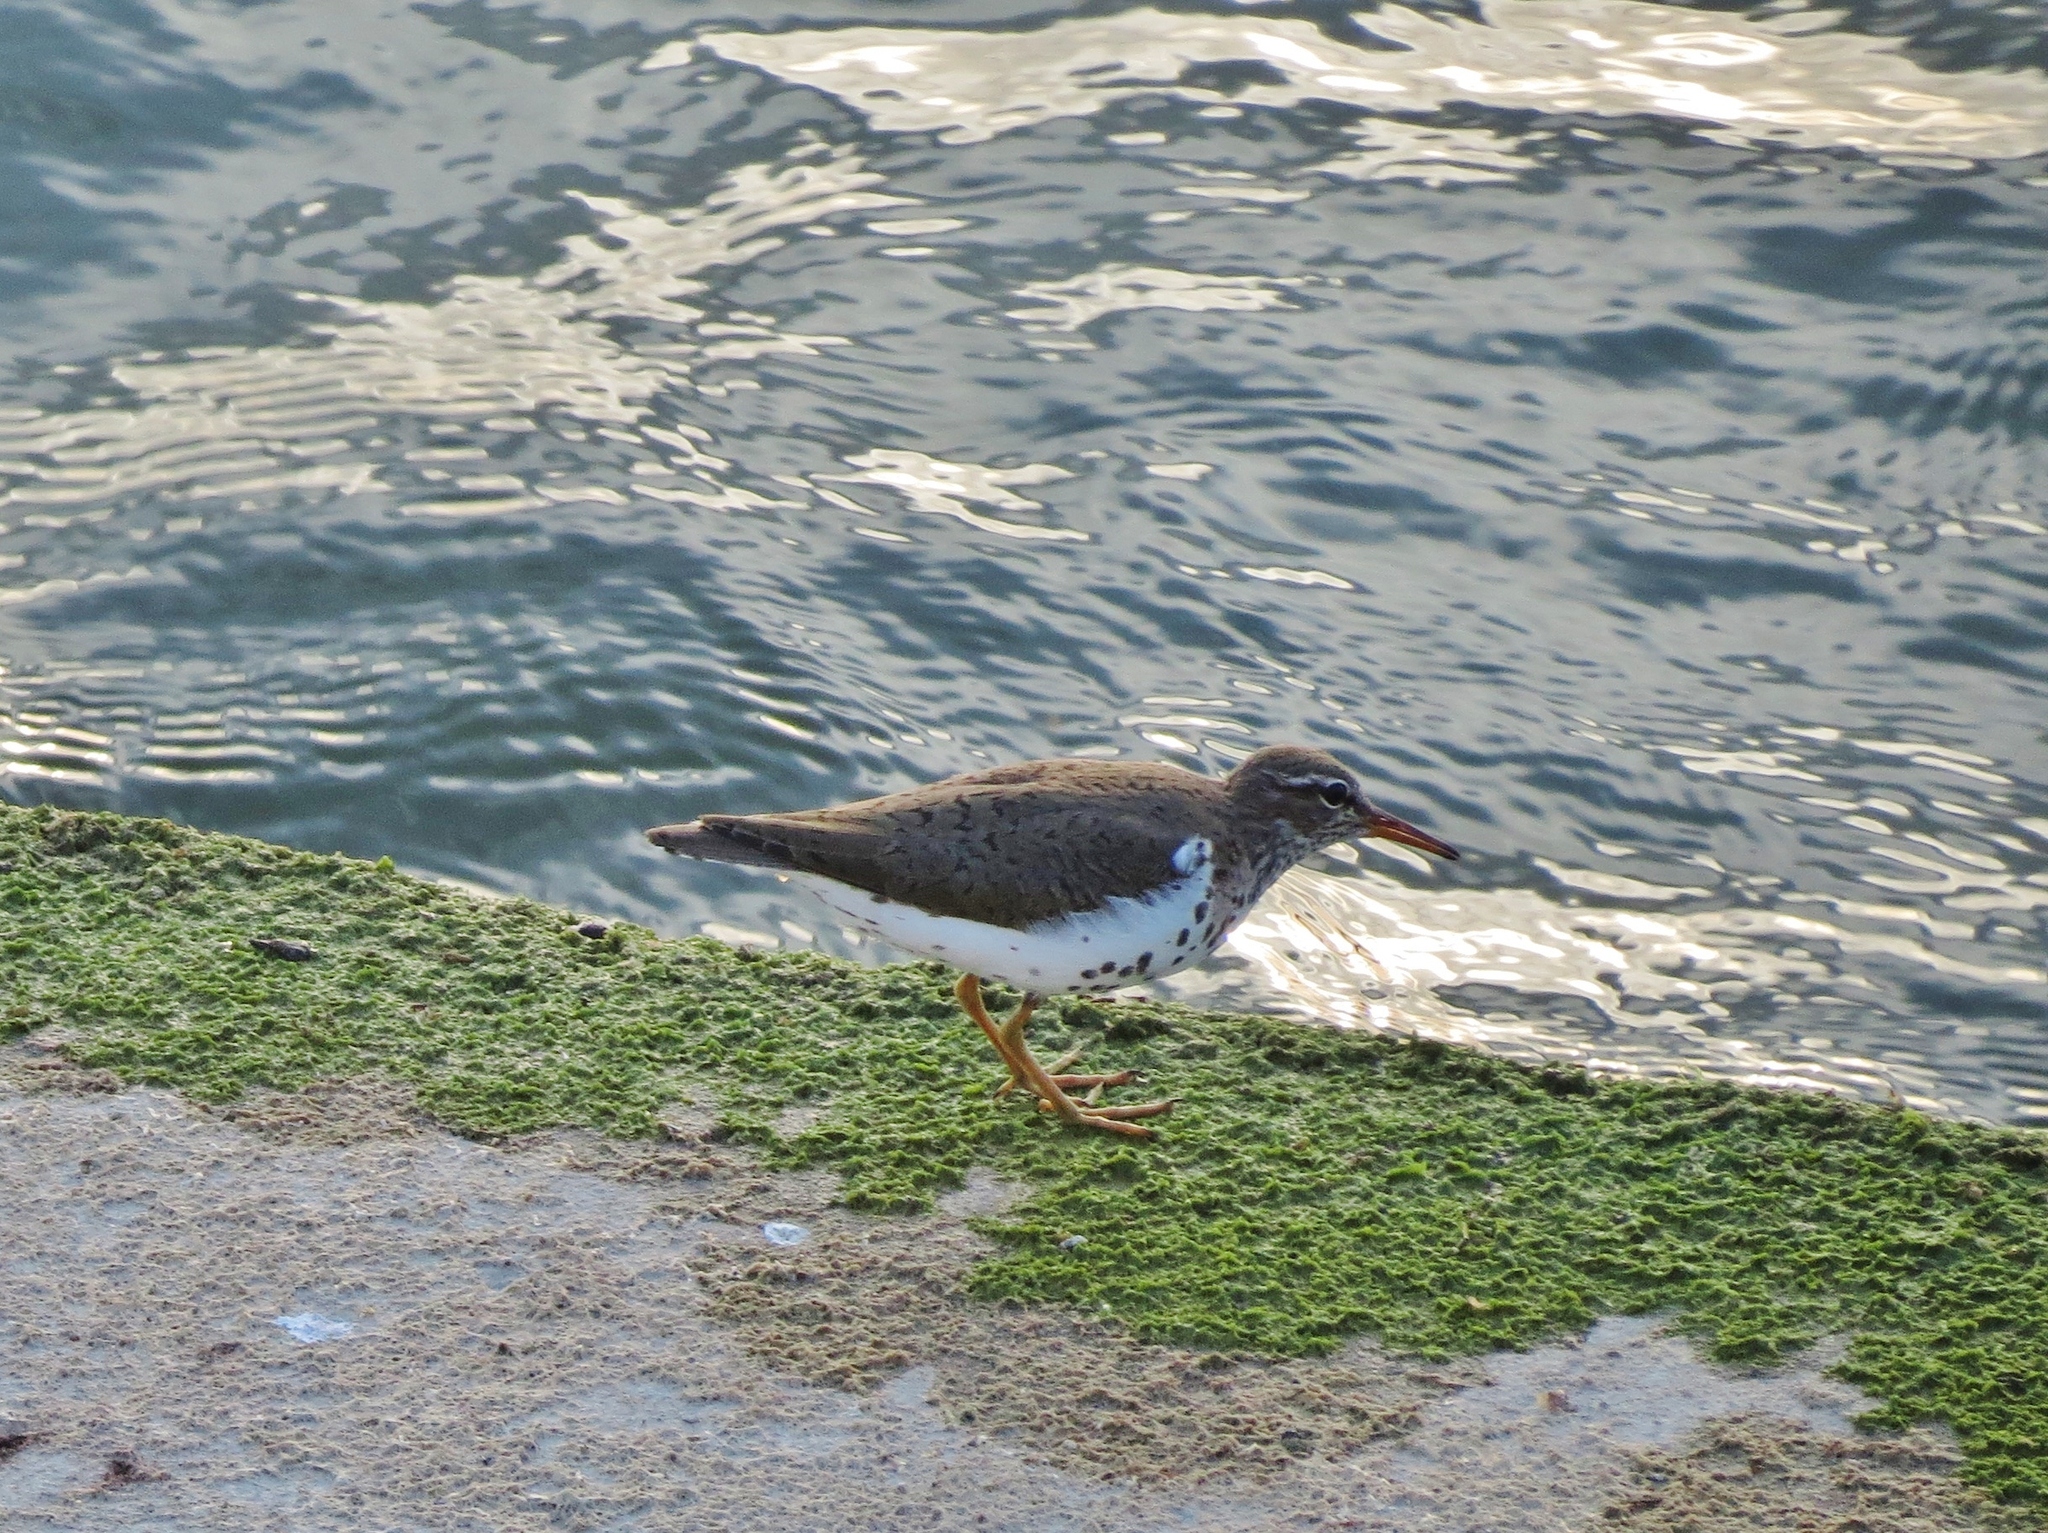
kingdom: Animalia
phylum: Chordata
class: Aves
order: Charadriiformes
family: Scolopacidae
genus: Actitis
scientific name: Actitis macularius
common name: Spotted sandpiper
